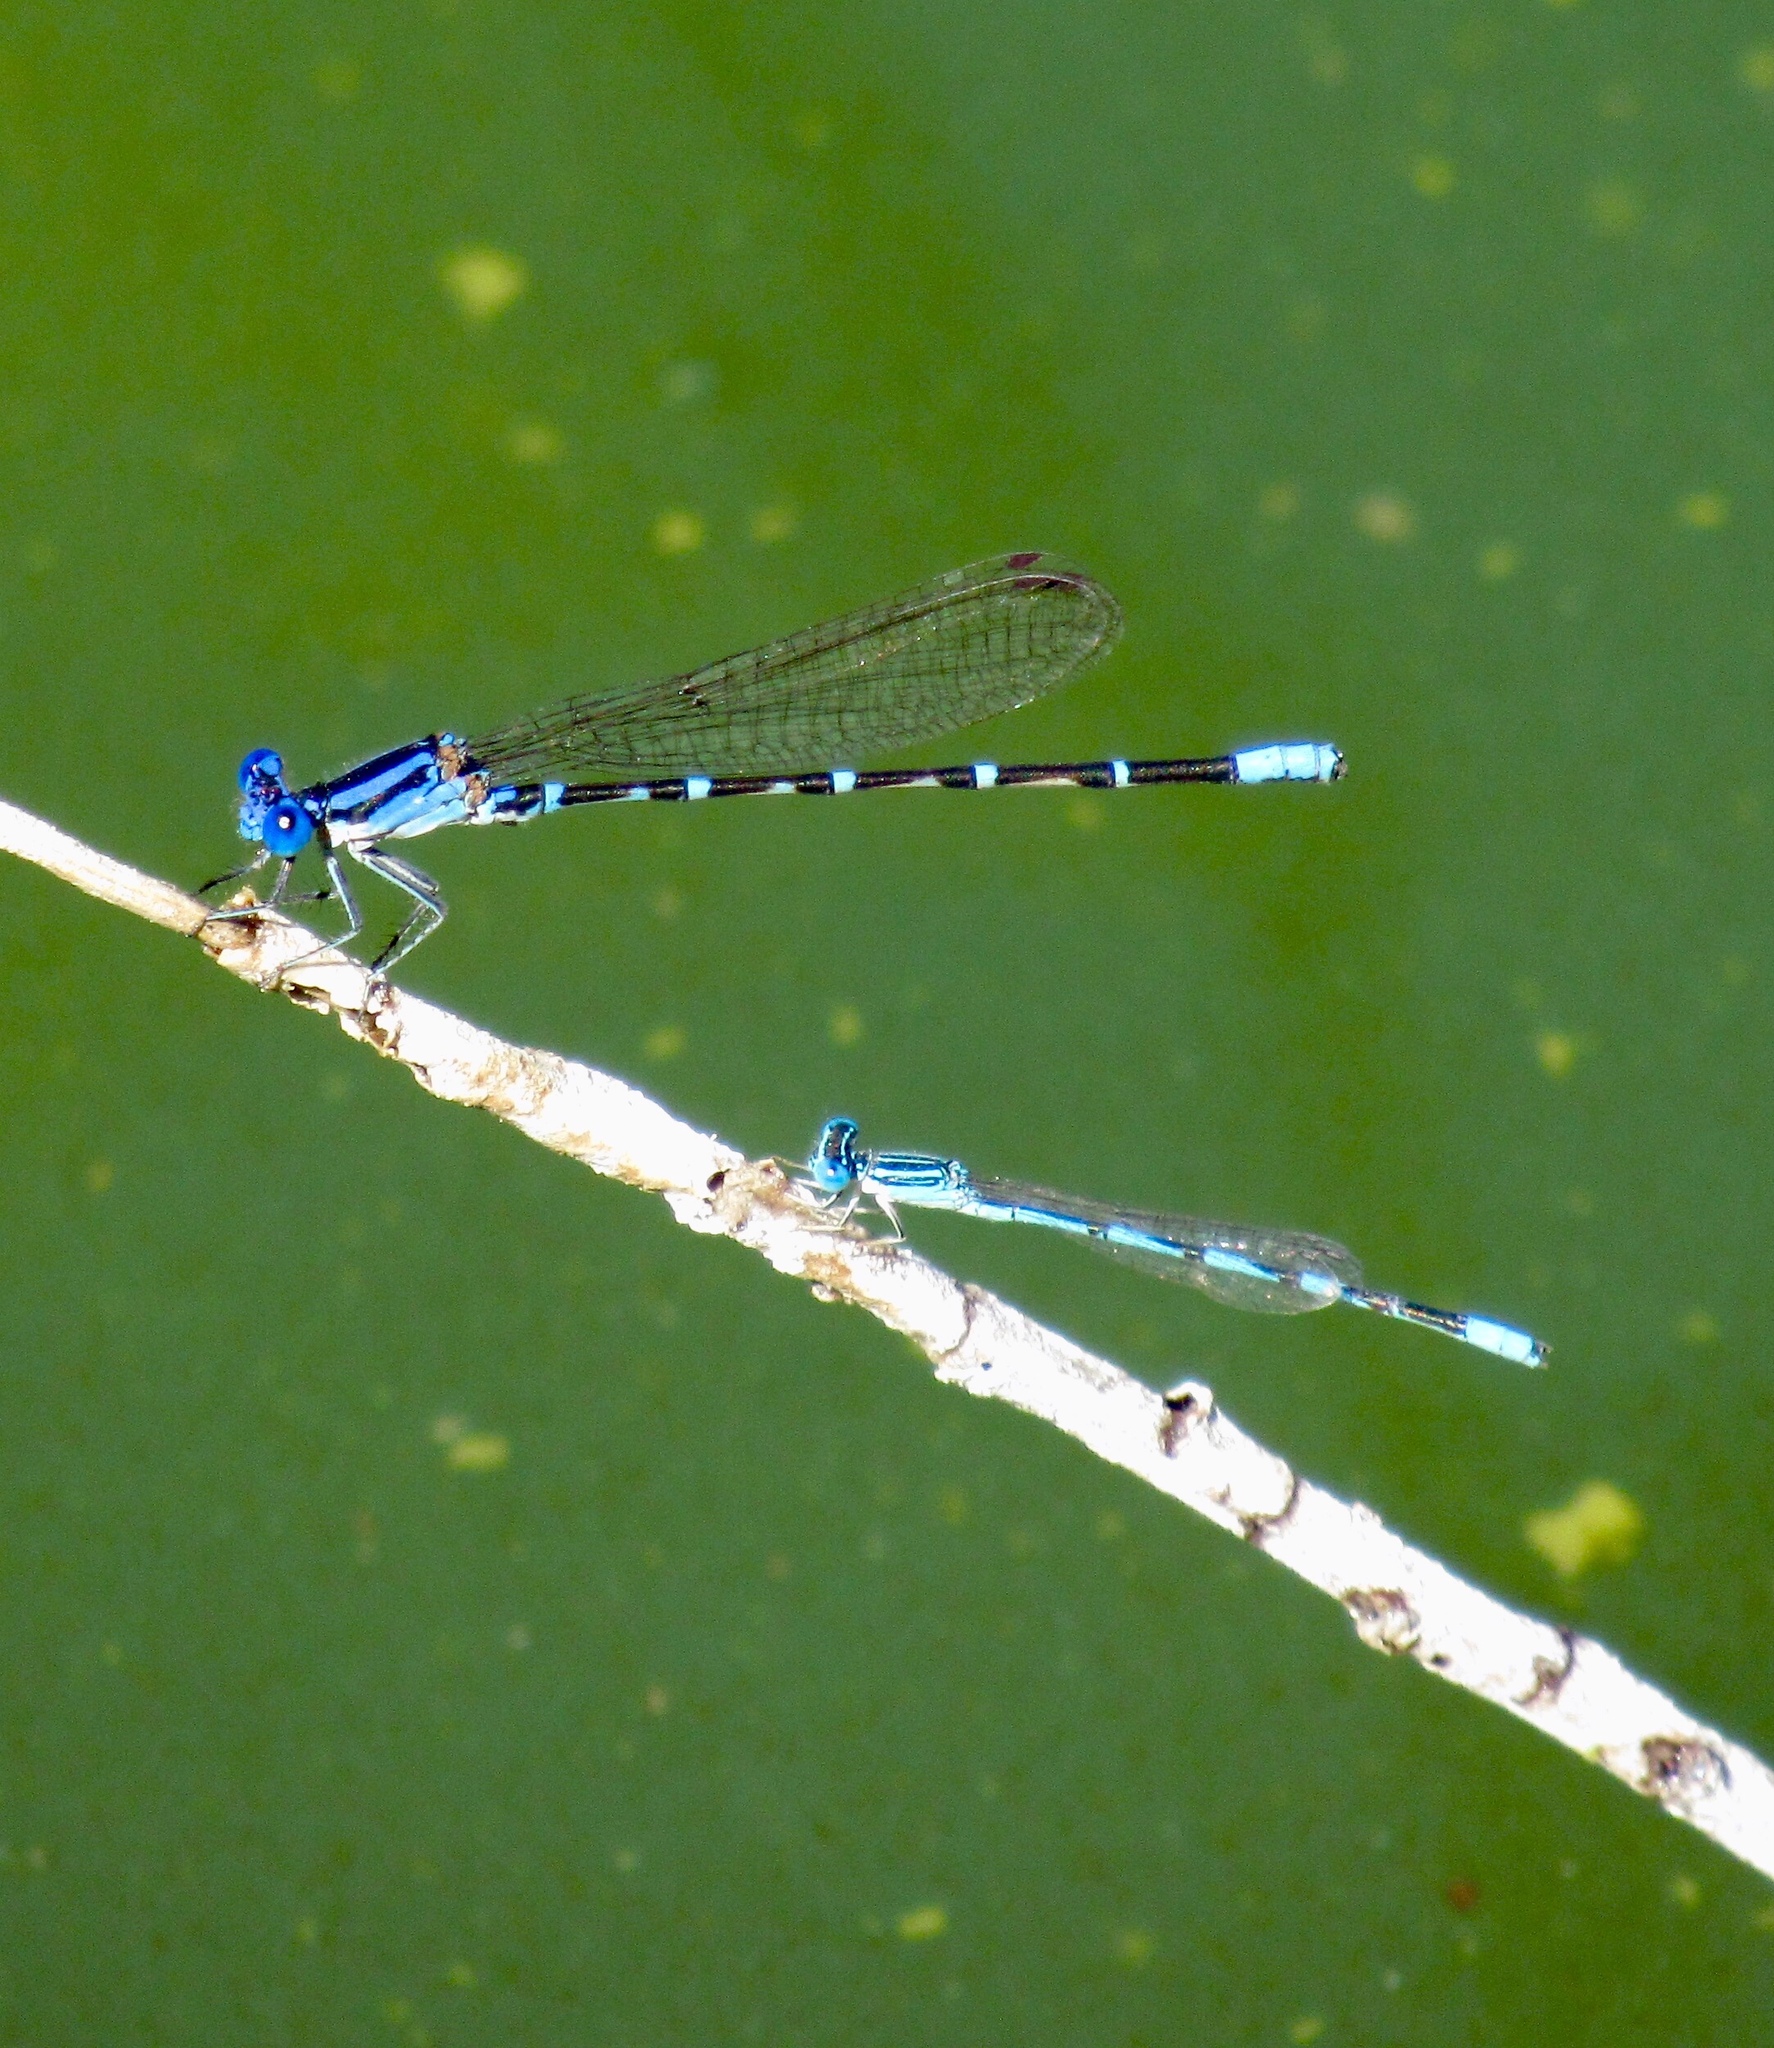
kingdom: Animalia
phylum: Arthropoda
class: Insecta
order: Odonata
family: Coenagrionidae
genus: Enallagma
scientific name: Enallagma basidens
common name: Double-striped bluet
